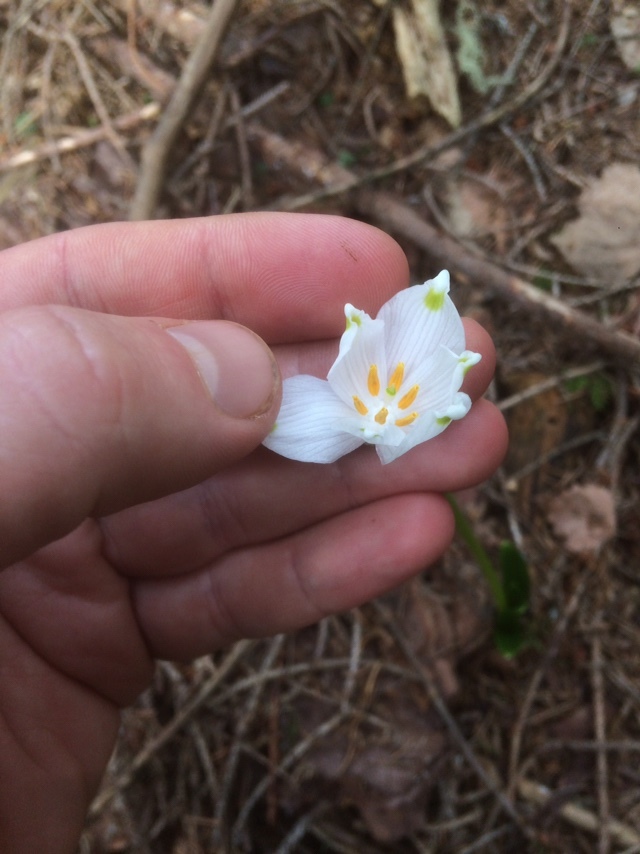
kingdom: Plantae
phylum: Tracheophyta
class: Liliopsida
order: Asparagales
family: Amaryllidaceae
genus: Leucojum
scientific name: Leucojum vernum
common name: Spring snowflake
